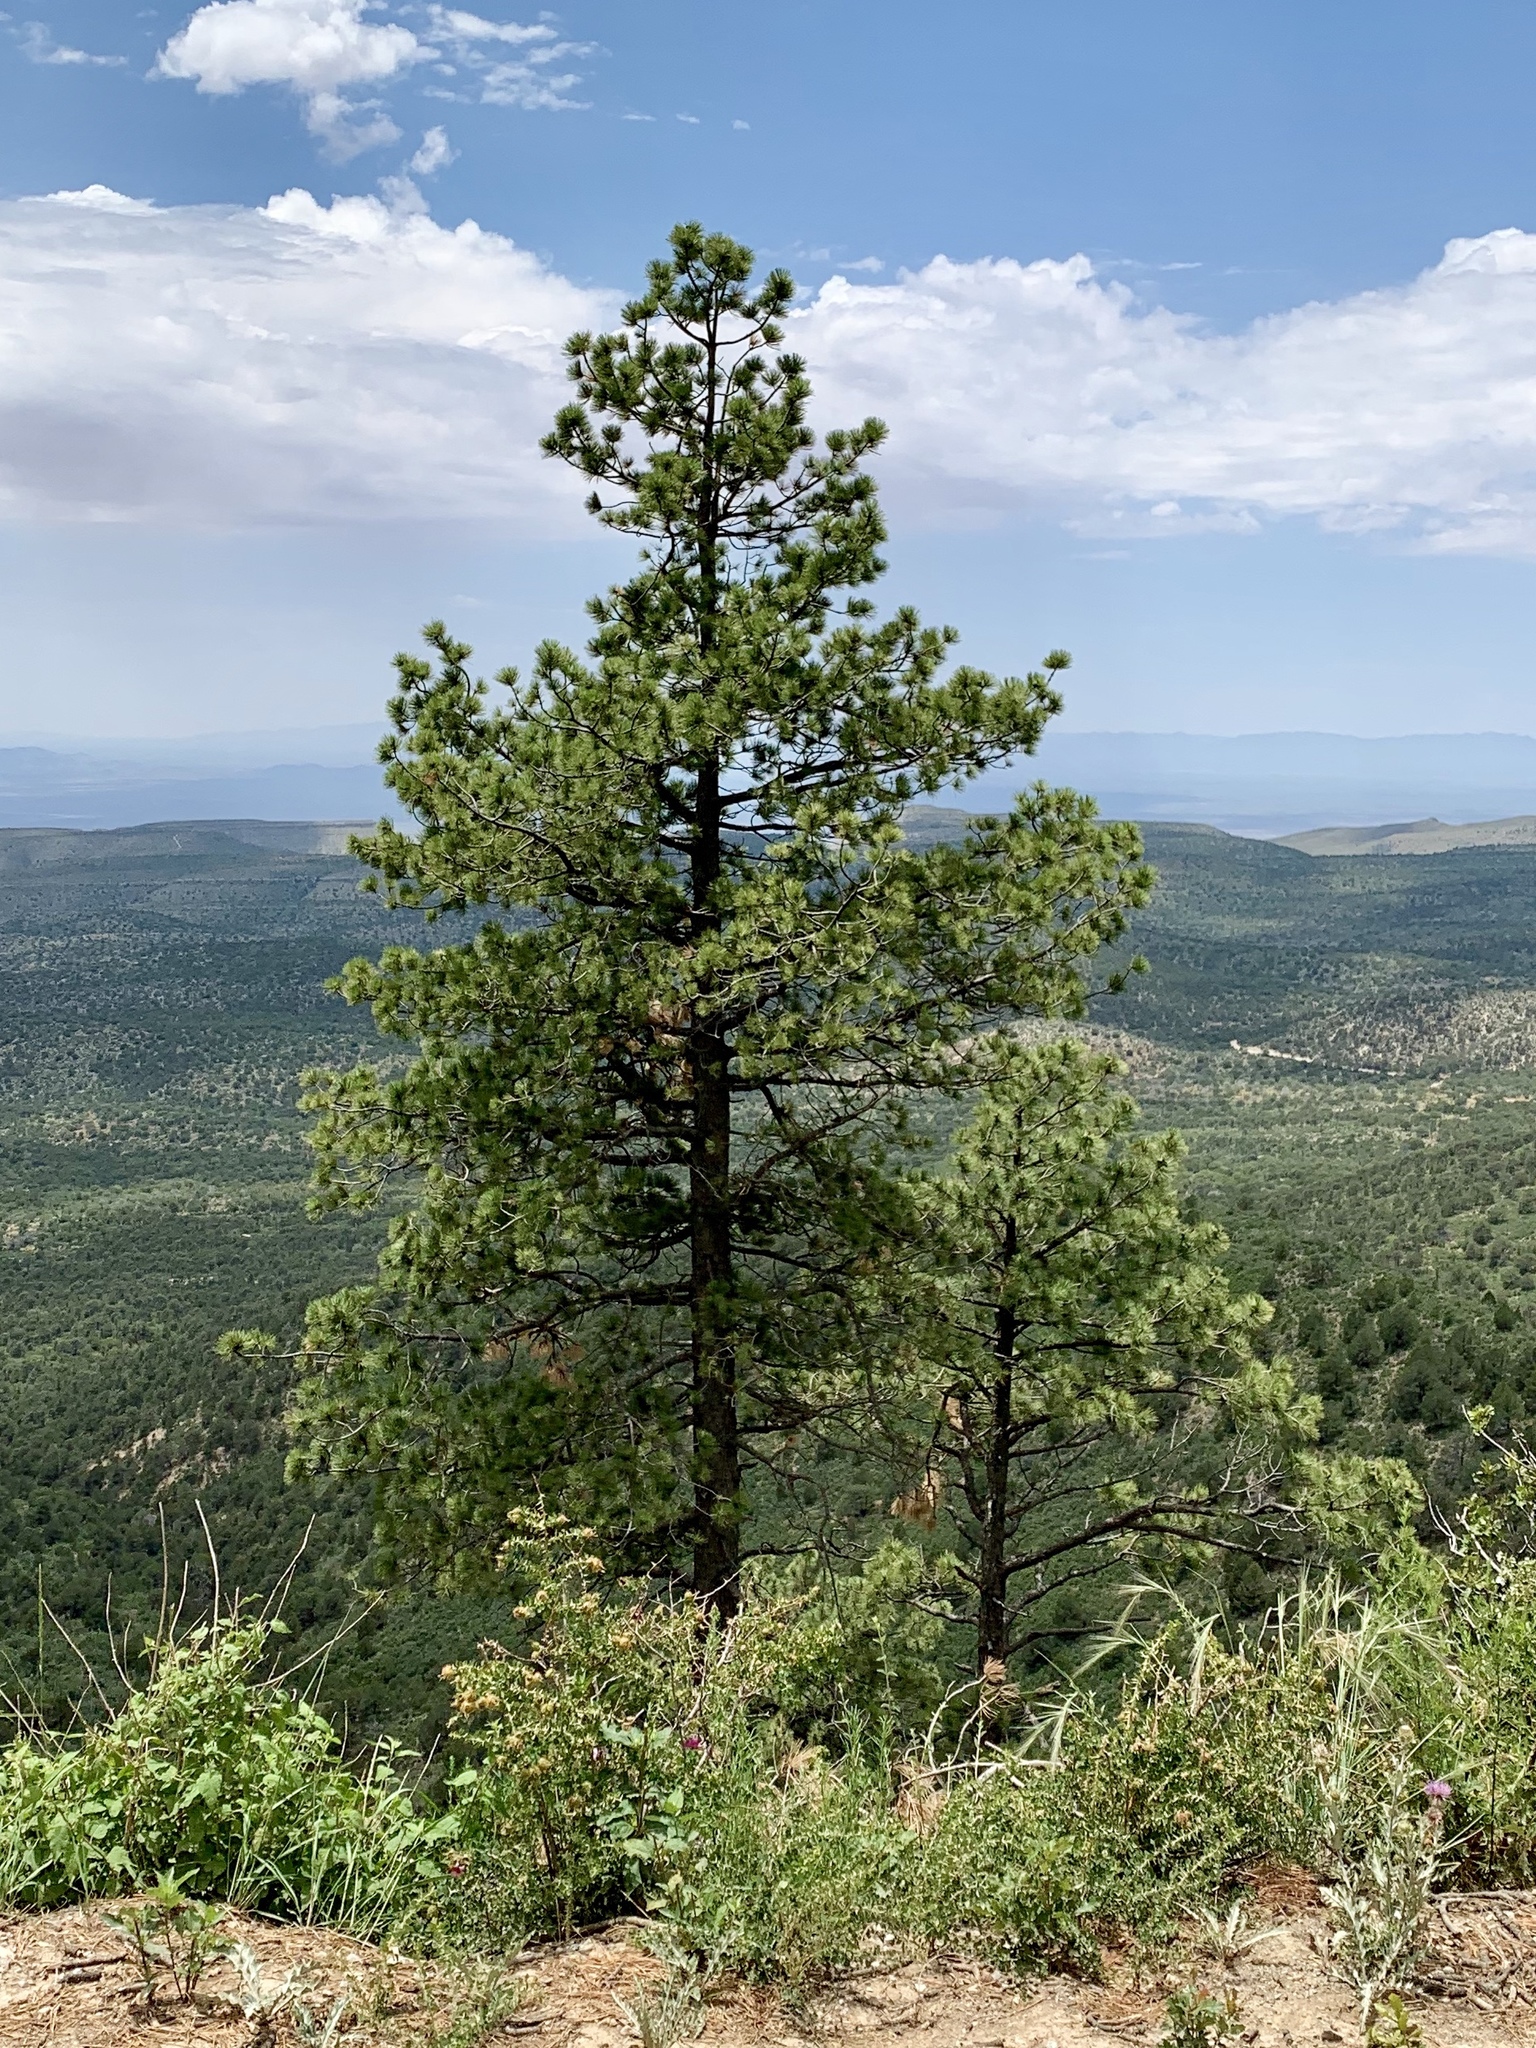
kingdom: Plantae
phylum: Tracheophyta
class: Pinopsida
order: Pinales
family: Pinaceae
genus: Pinus
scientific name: Pinus ponderosa
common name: Western yellow-pine
